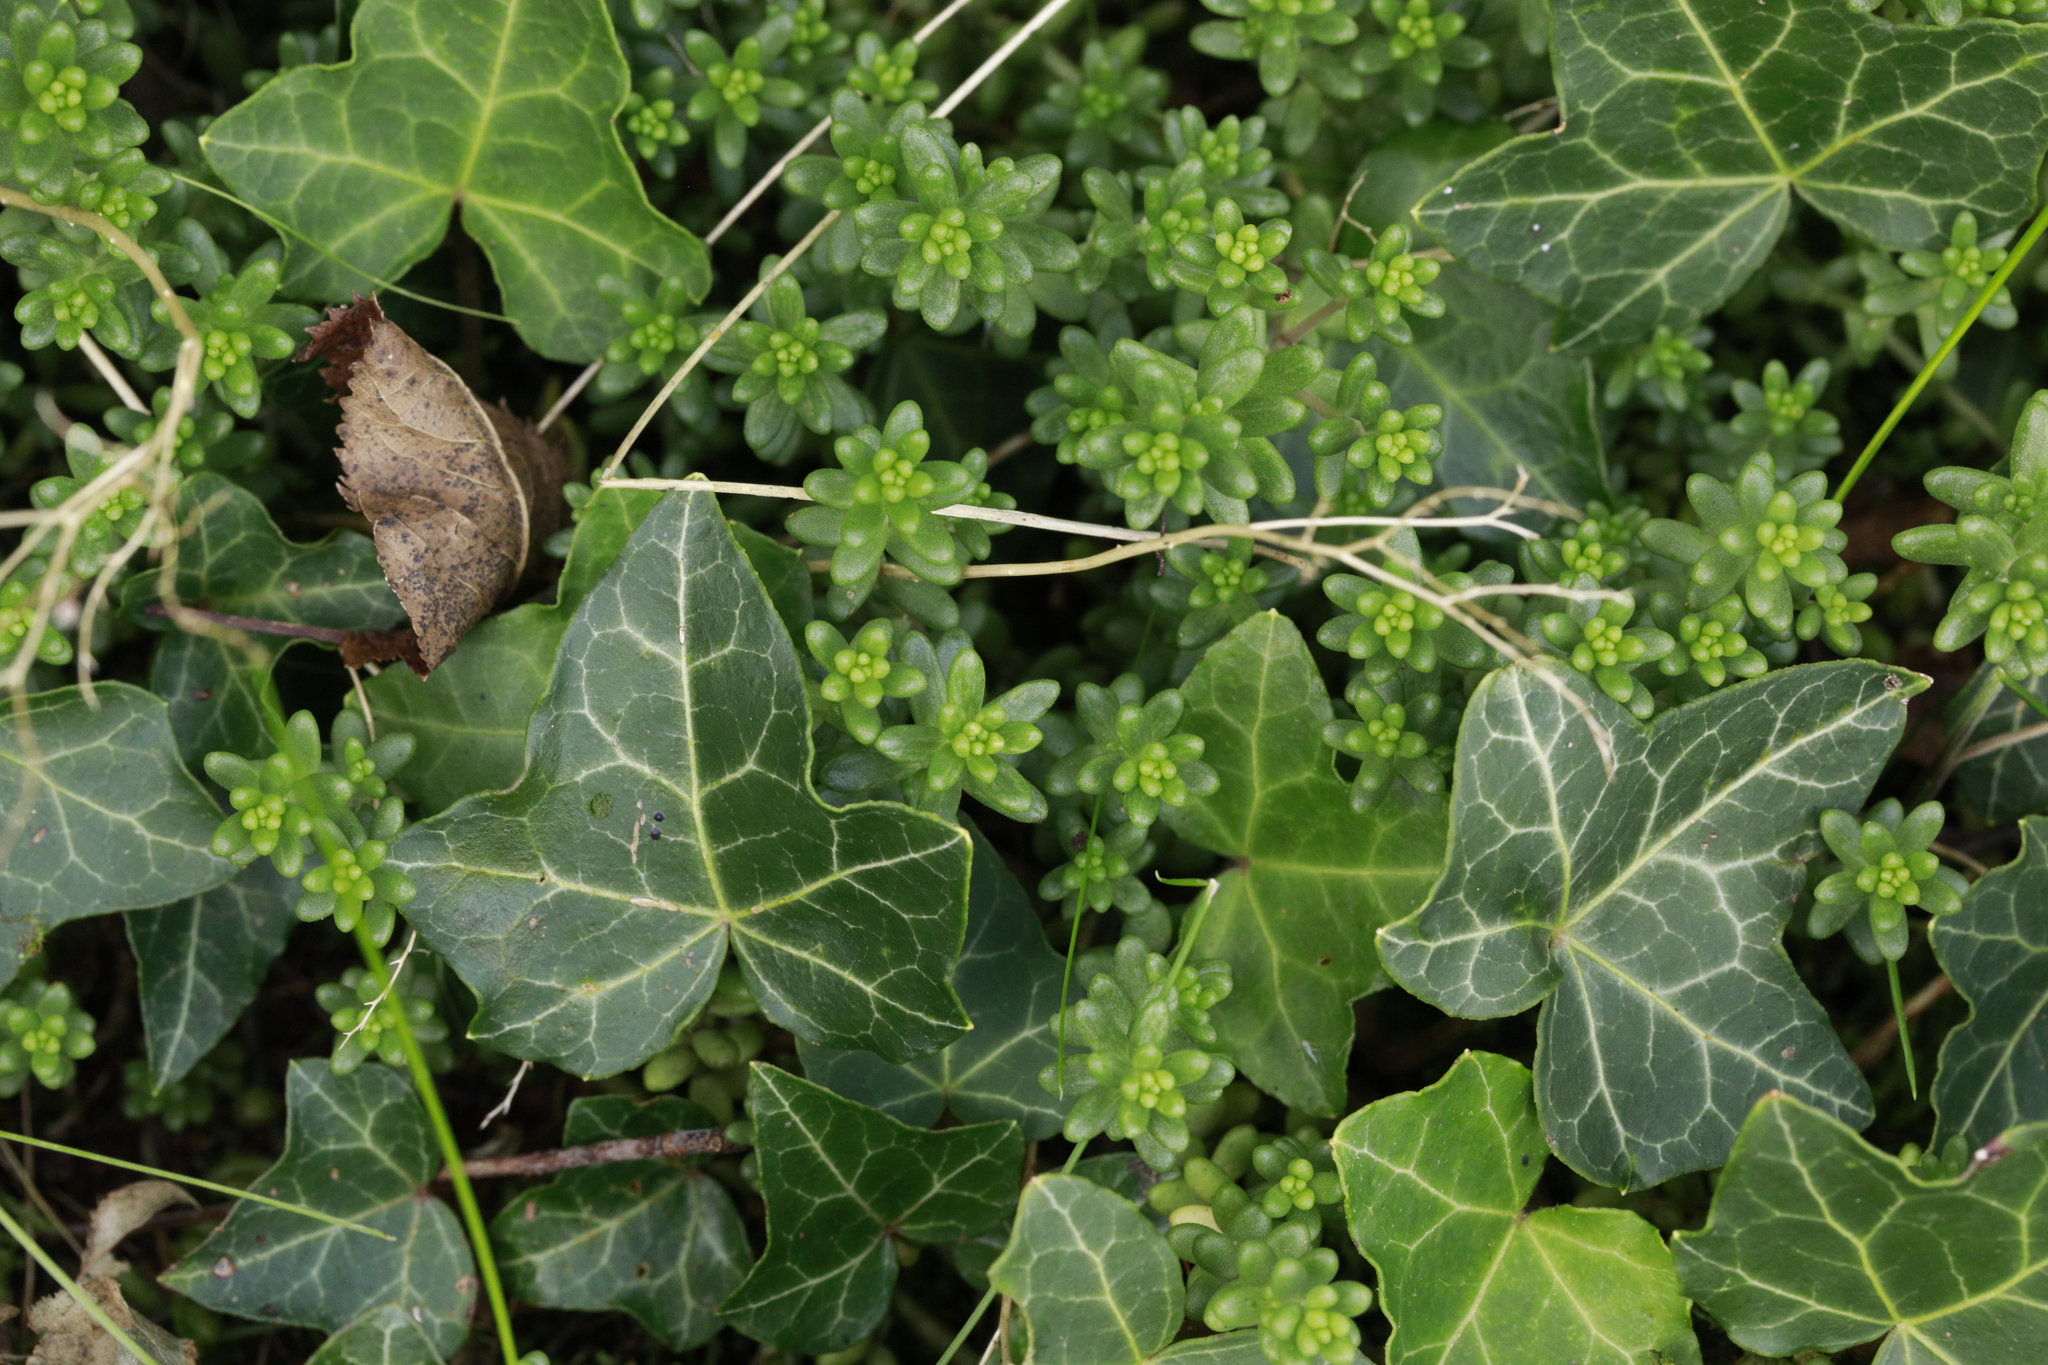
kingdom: Plantae
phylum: Tracheophyta
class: Magnoliopsida
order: Apiales
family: Araliaceae
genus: Hedera
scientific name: Hedera helix
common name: Ivy
